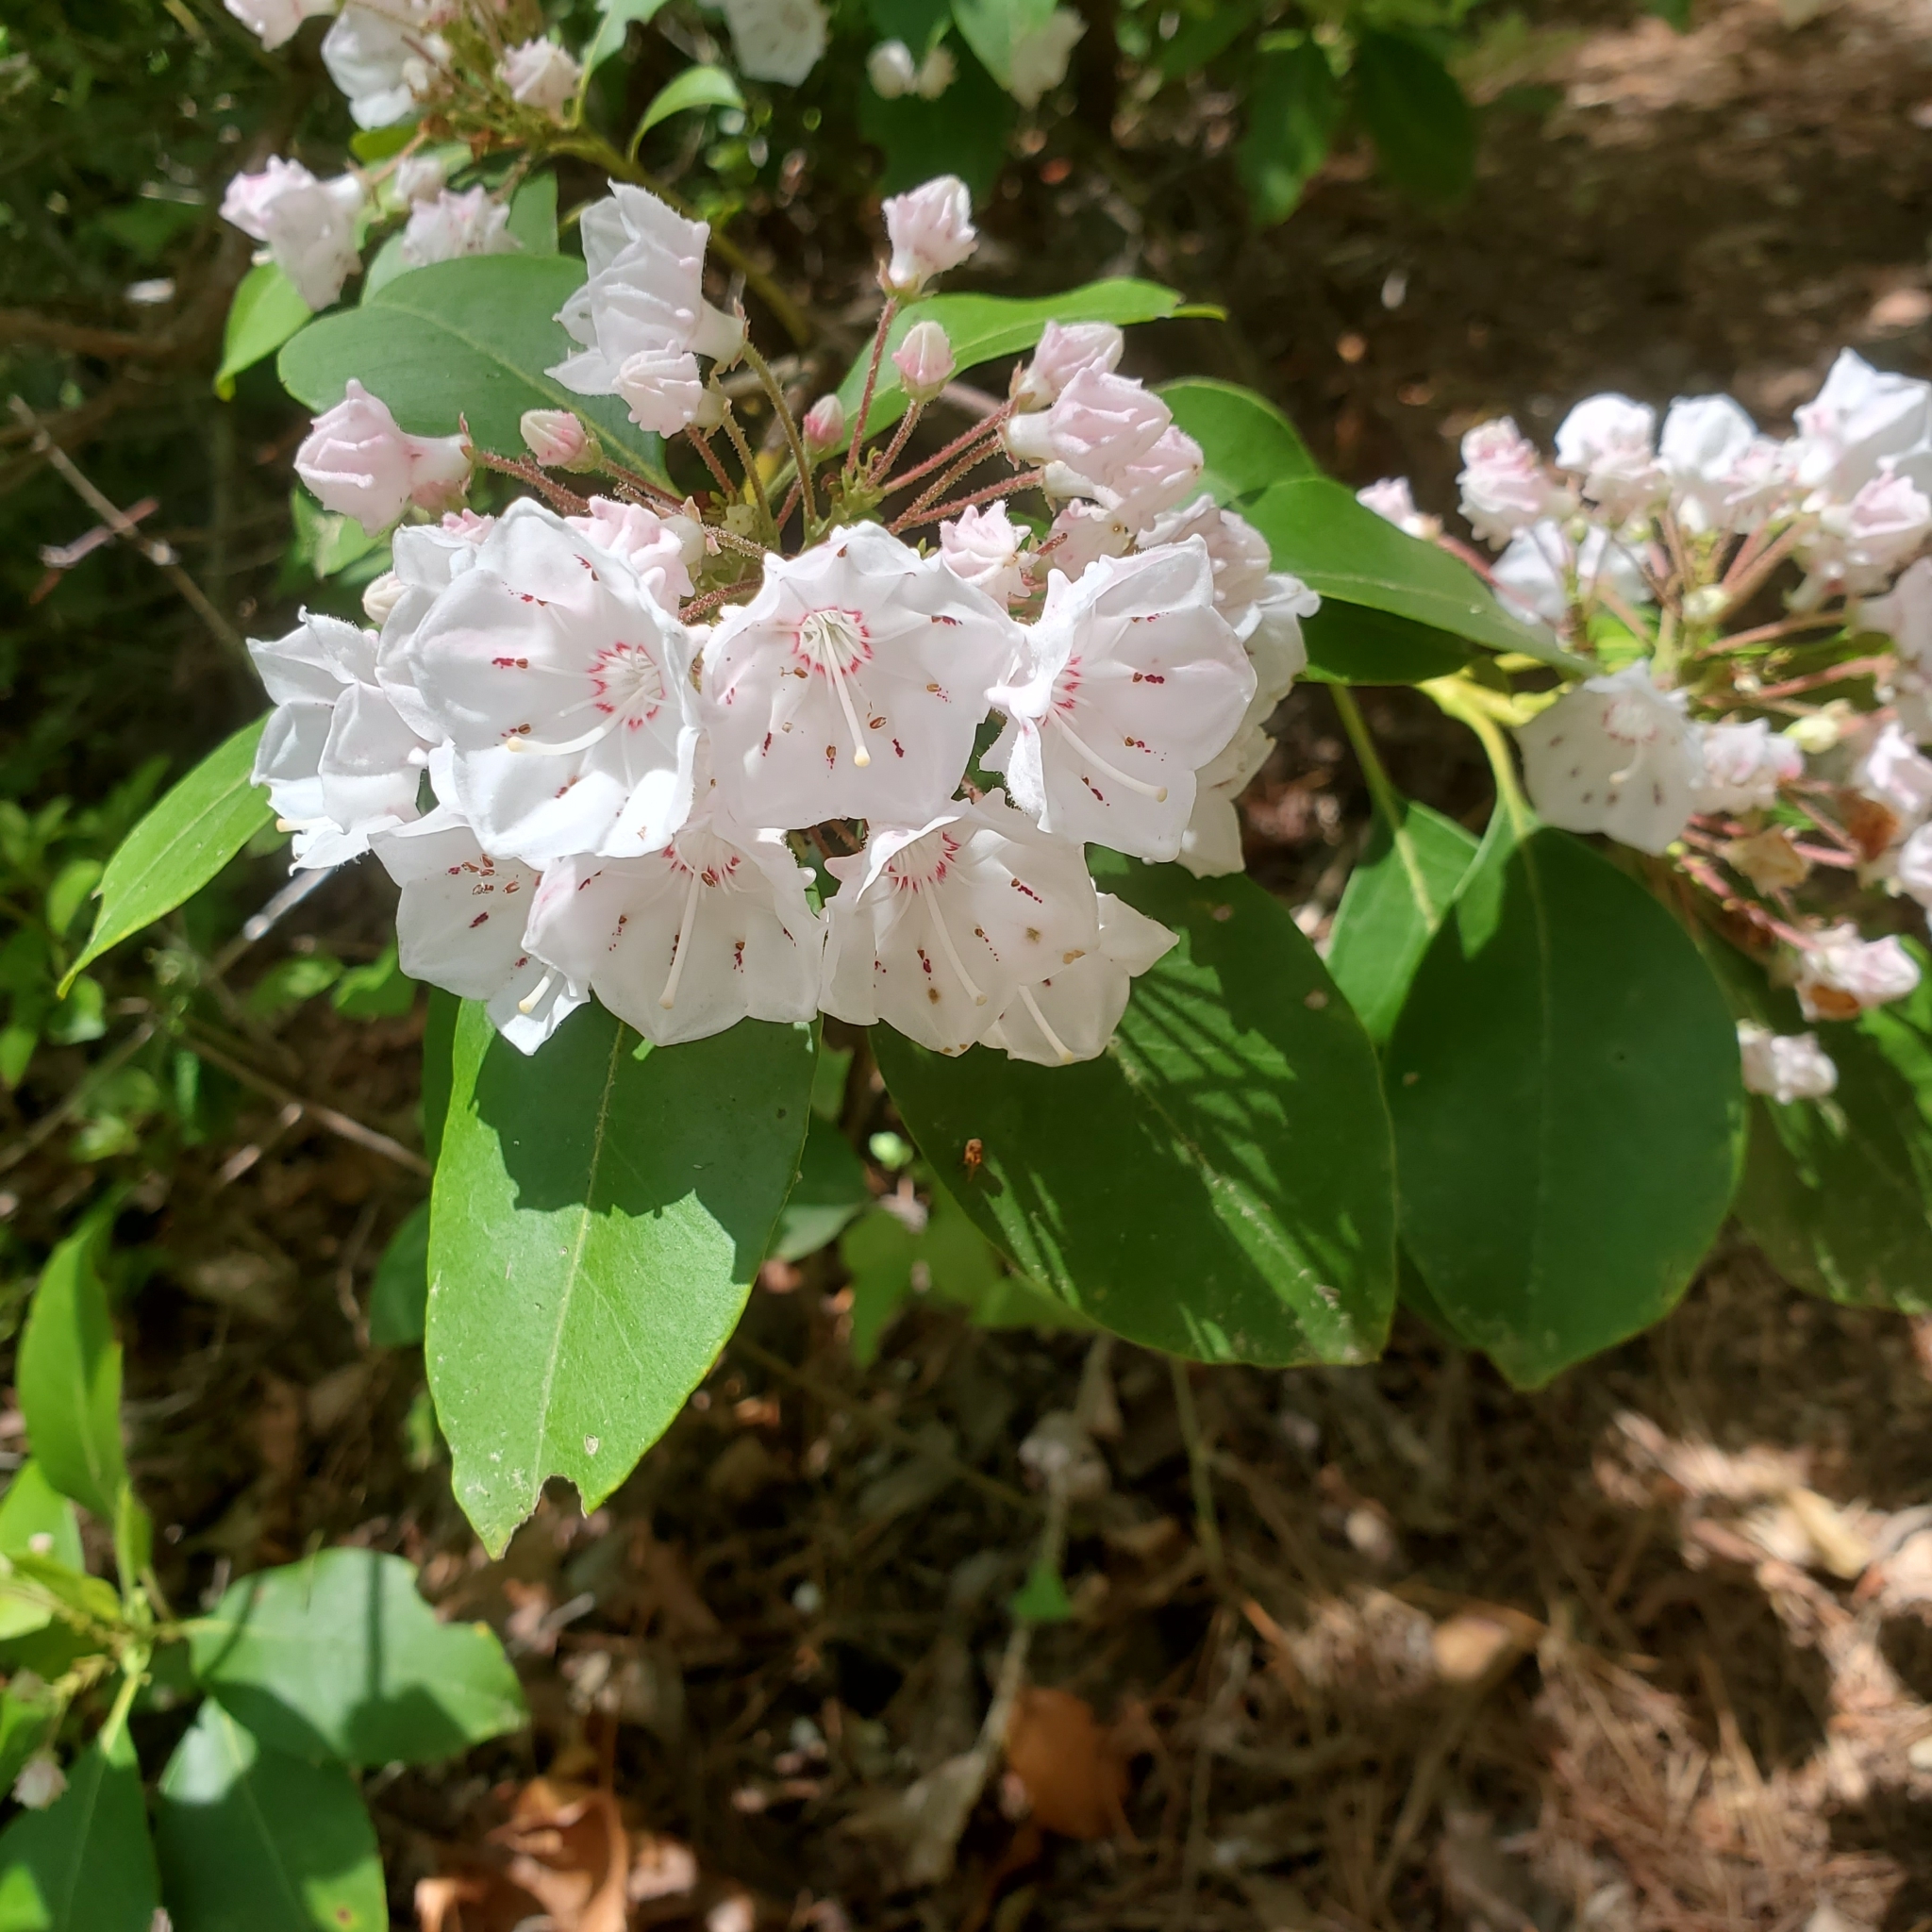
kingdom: Plantae
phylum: Tracheophyta
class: Magnoliopsida
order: Ericales
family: Ericaceae
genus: Kalmia
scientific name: Kalmia latifolia
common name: Mountain-laurel
